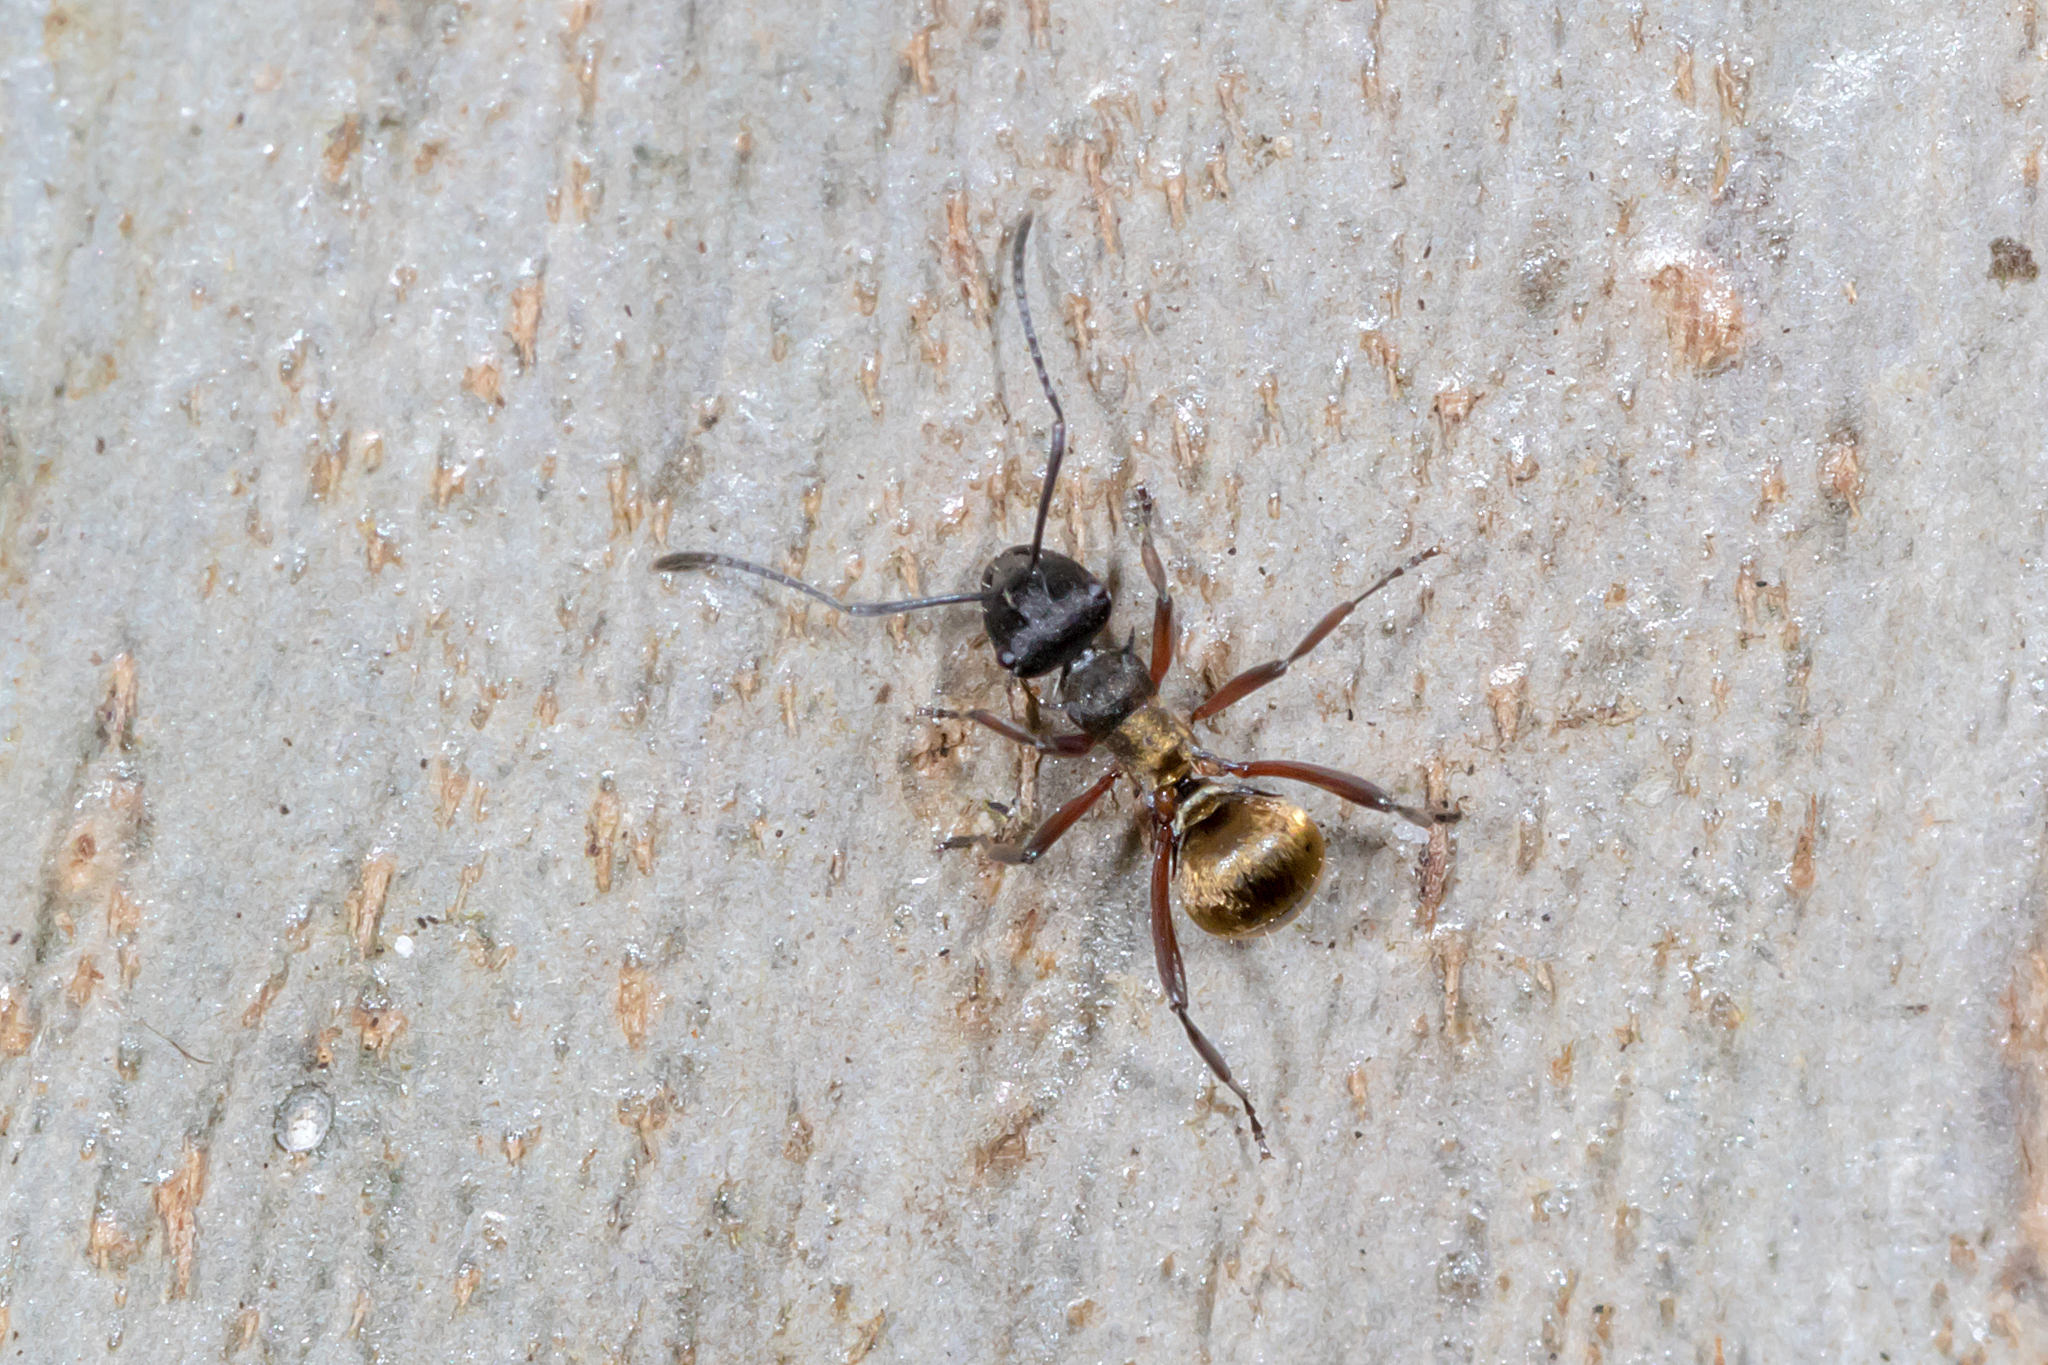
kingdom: Animalia
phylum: Arthropoda
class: Insecta
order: Hymenoptera
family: Formicidae
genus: Polyrhachis
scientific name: Polyrhachis rufifemur
